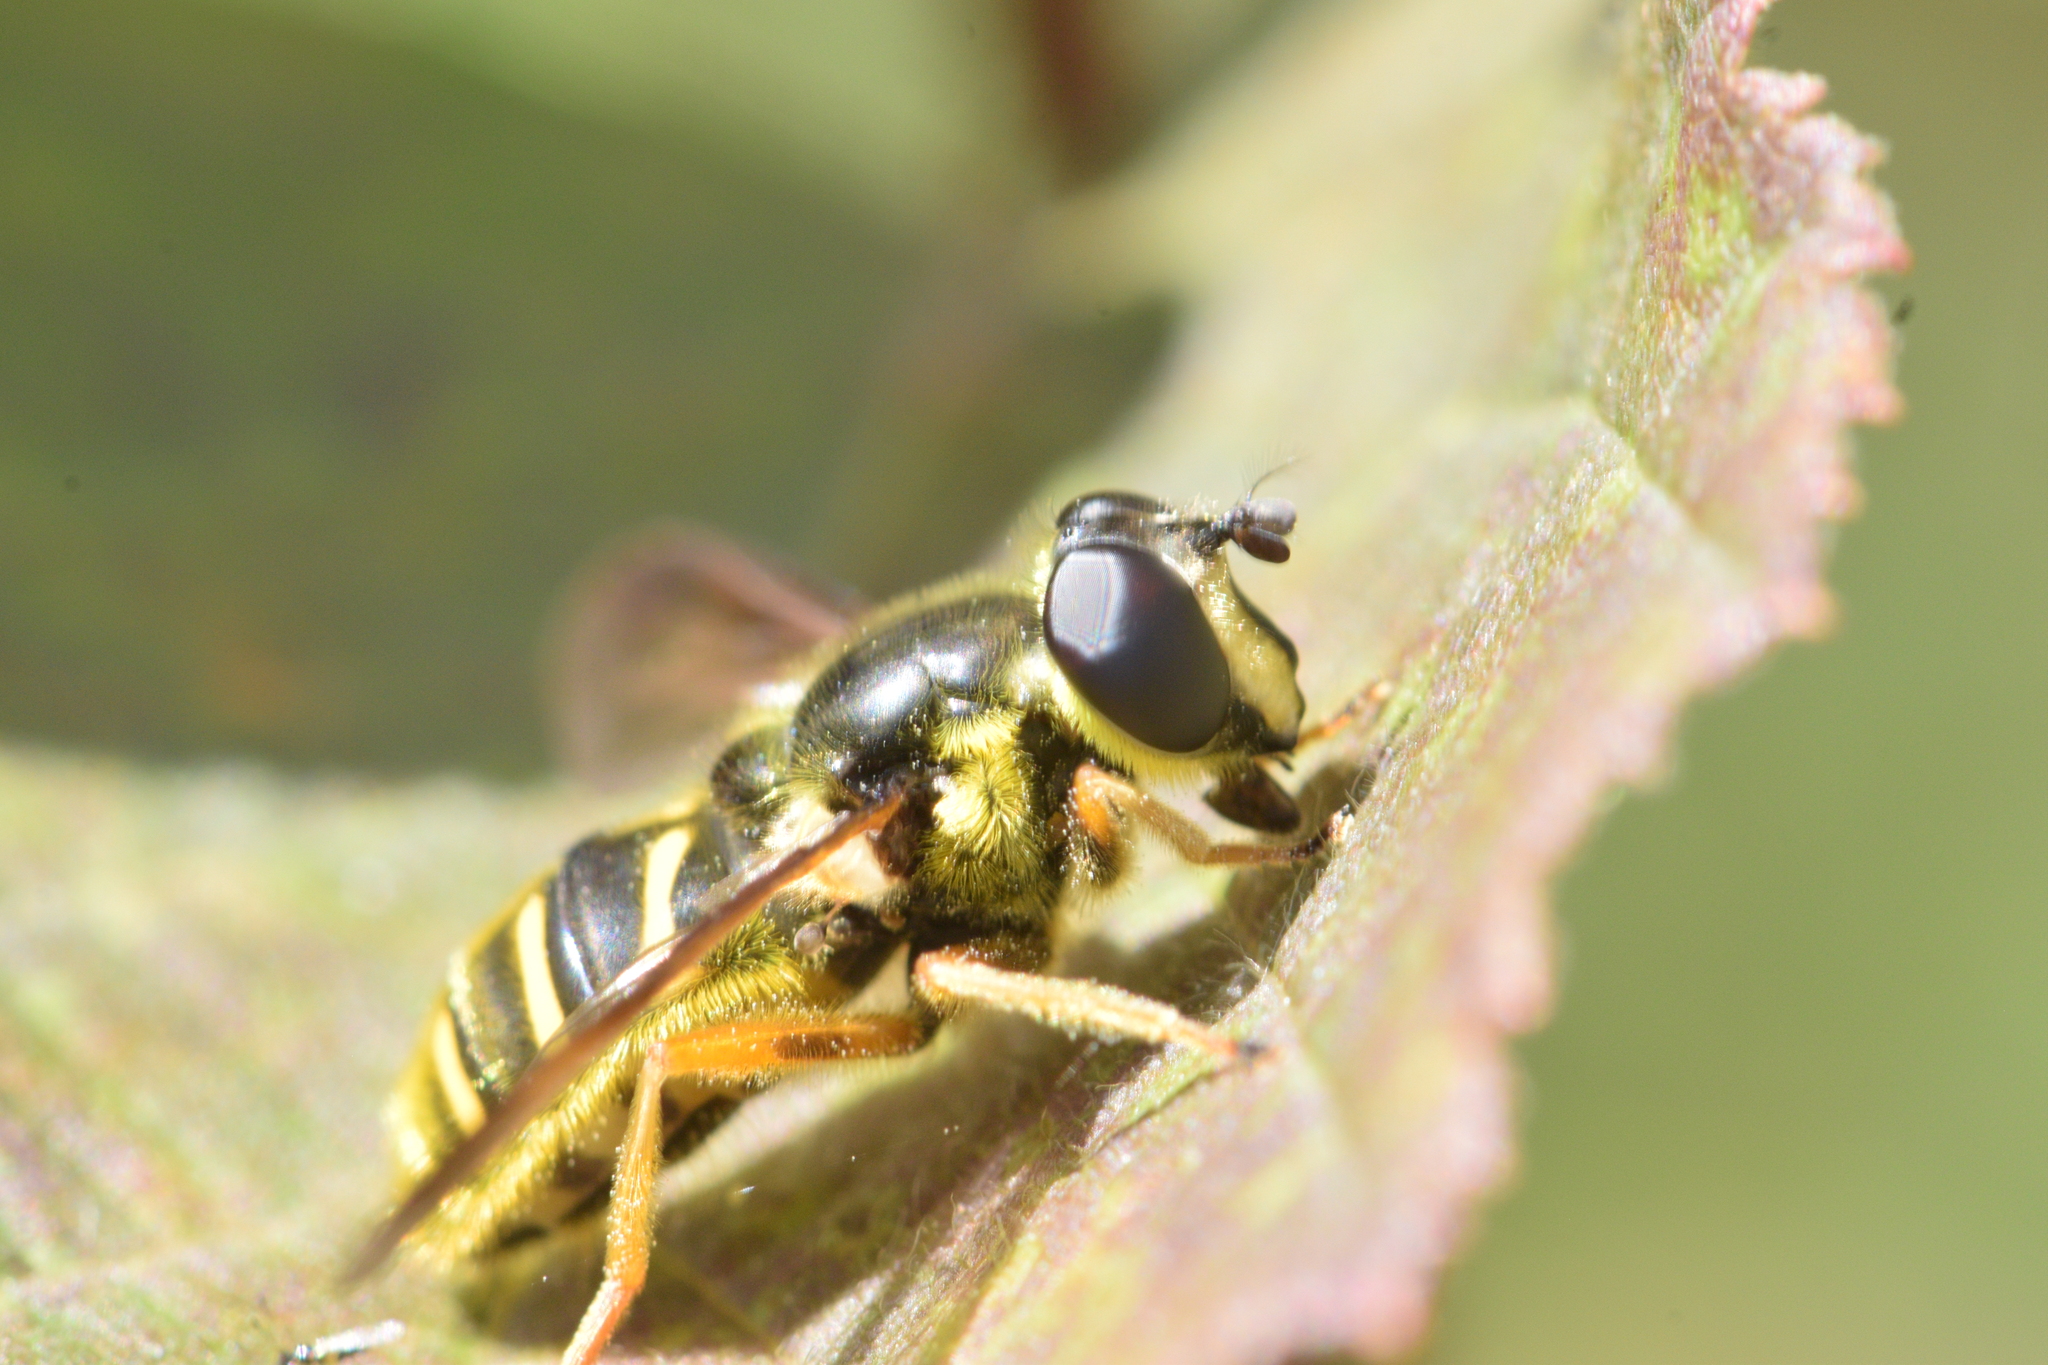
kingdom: Animalia
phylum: Arthropoda
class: Insecta
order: Diptera
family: Syrphidae
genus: Sericomyia
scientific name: Sericomyia chrysotoxoides
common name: Oblique-banded pond fly
